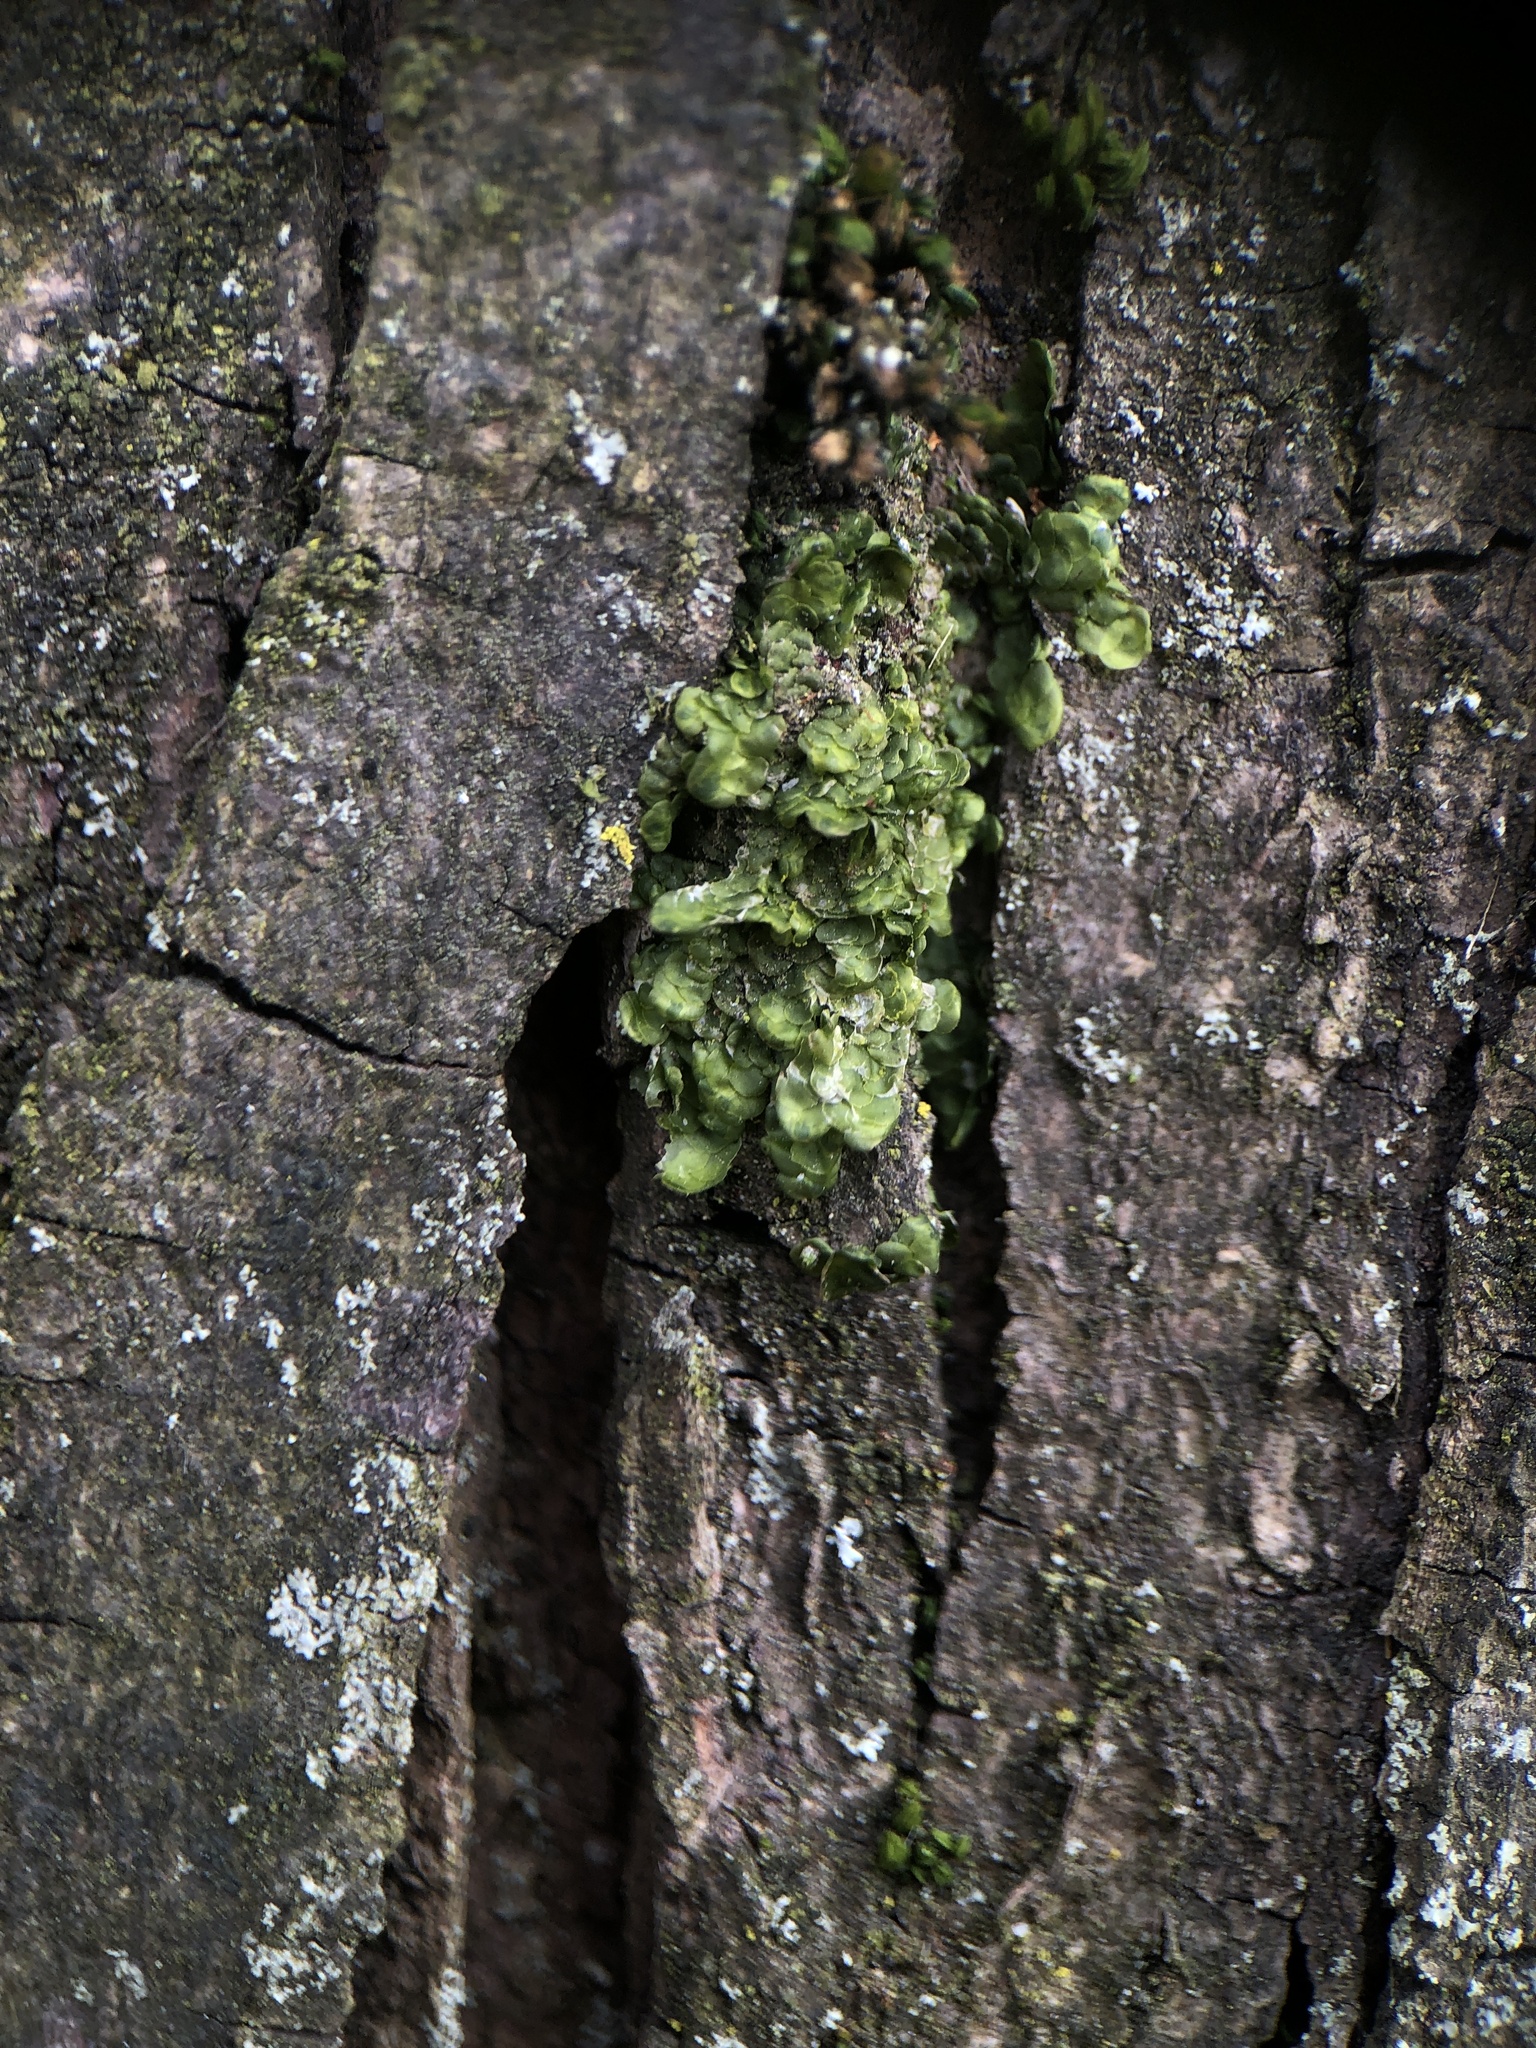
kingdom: Plantae
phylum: Marchantiophyta
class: Jungermanniopsida
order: Porellales
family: Radulaceae
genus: Radula
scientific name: Radula complanata
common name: Flat-leaved scalewort
